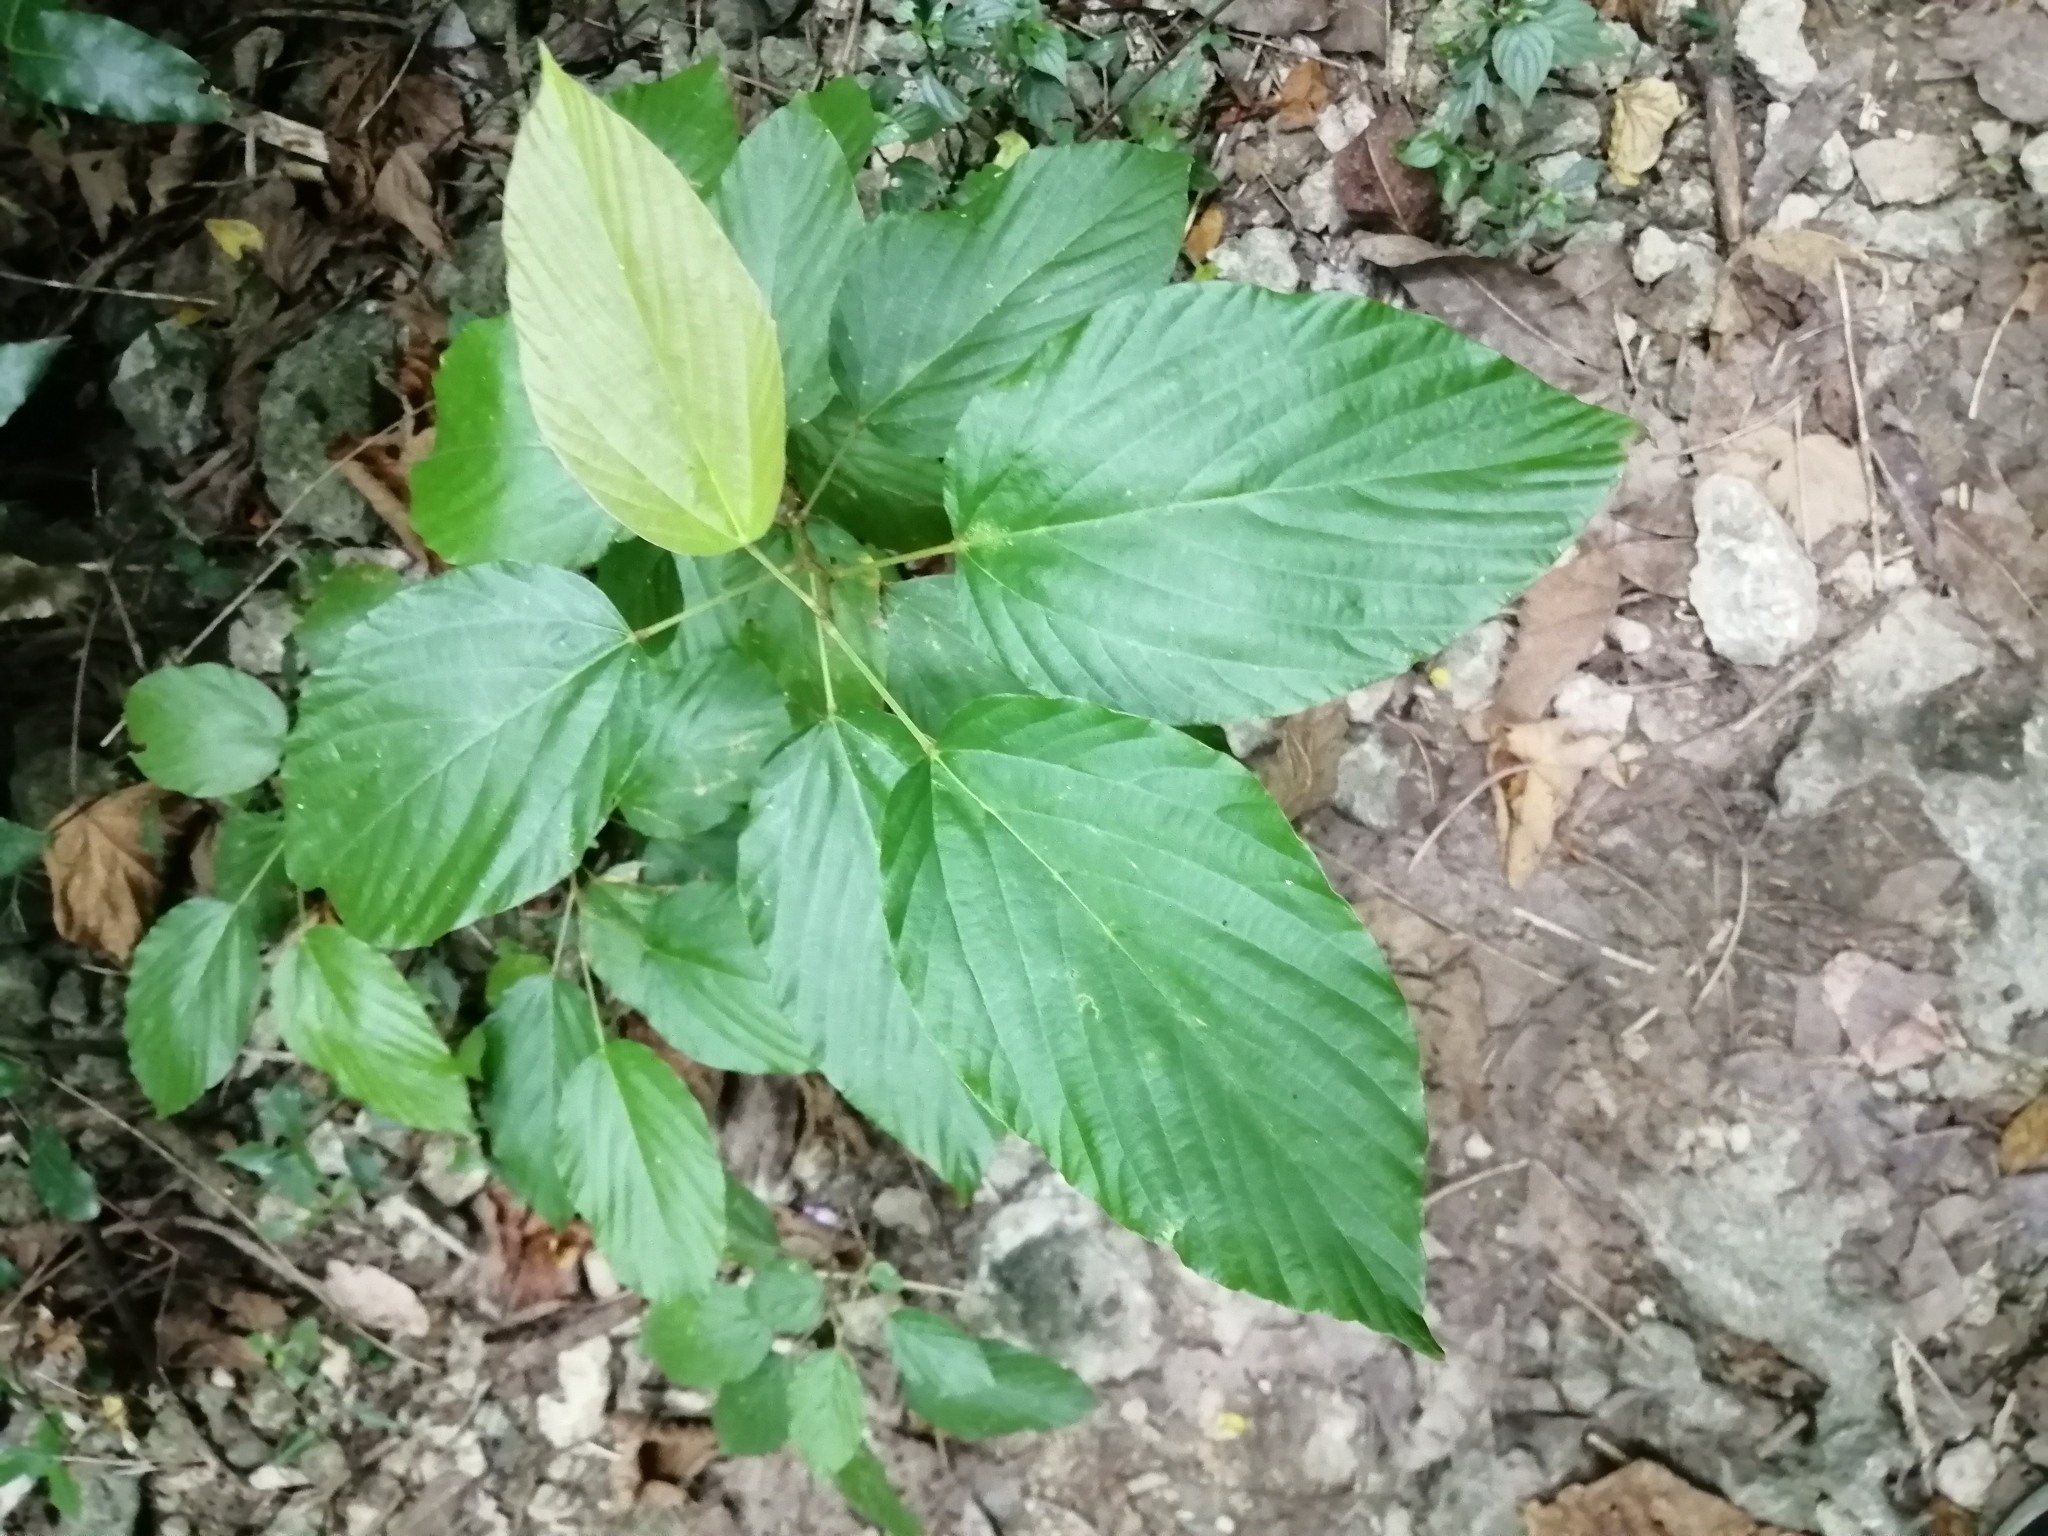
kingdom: Plantae
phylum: Tracheophyta
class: Magnoliopsida
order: Fabales
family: Fabaceae
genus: Flemingia
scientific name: Flemingia strobilifera
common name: Wild hops
